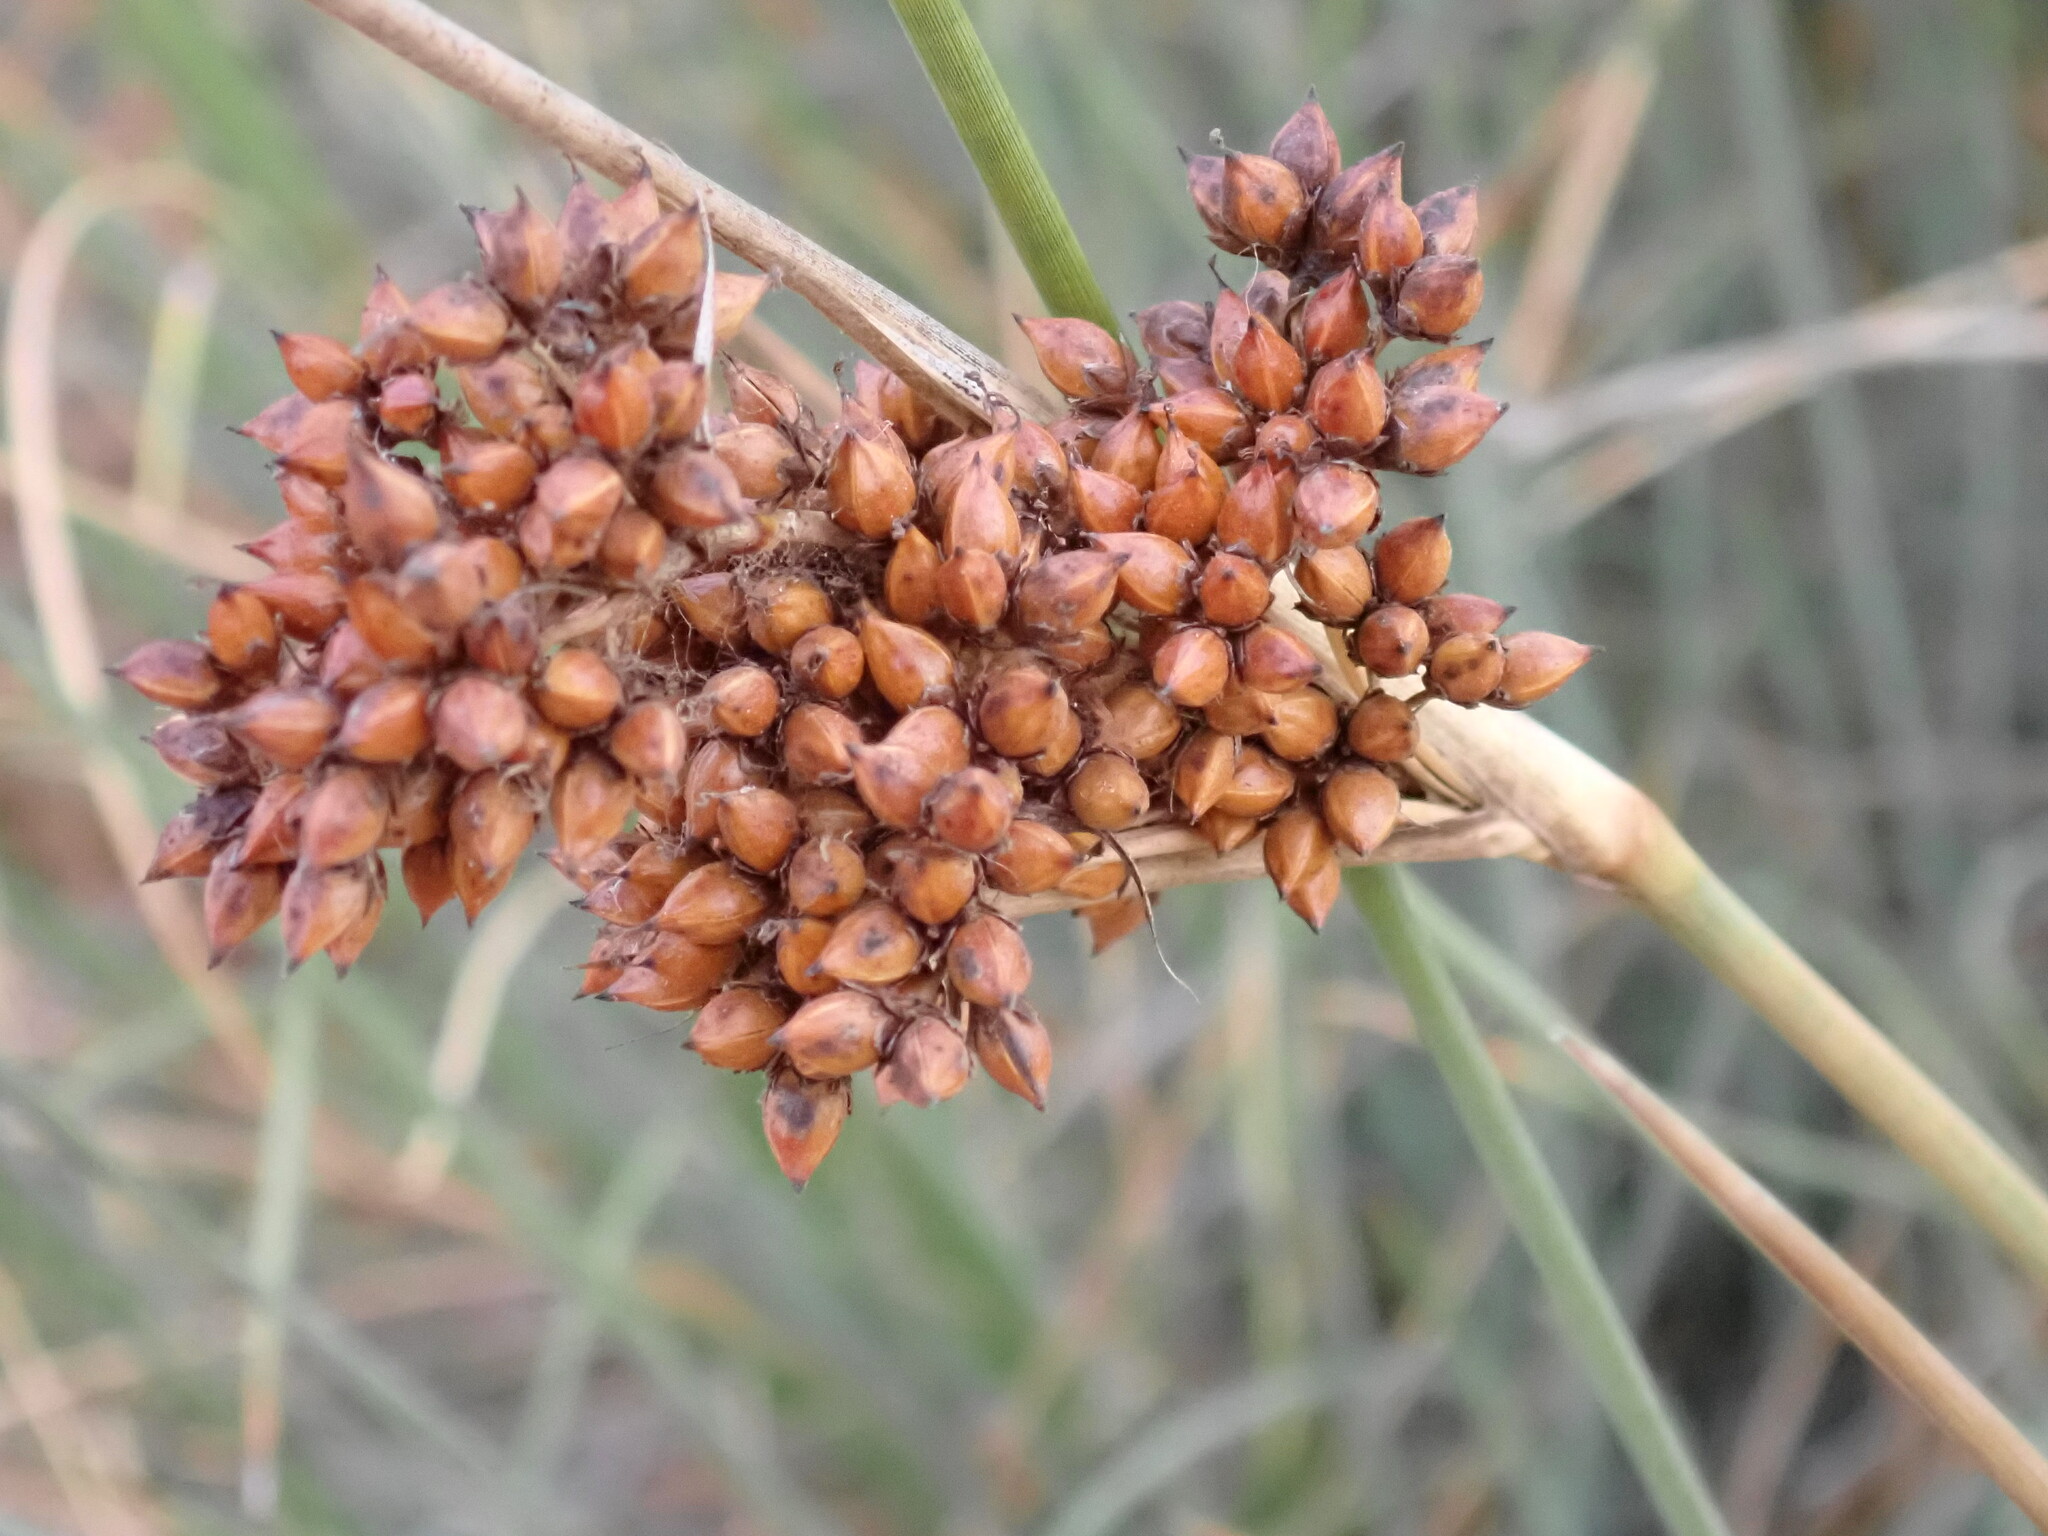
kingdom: Plantae
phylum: Tracheophyta
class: Liliopsida
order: Poales
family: Juncaceae
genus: Juncus
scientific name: Juncus acutus
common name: Sharp rush
